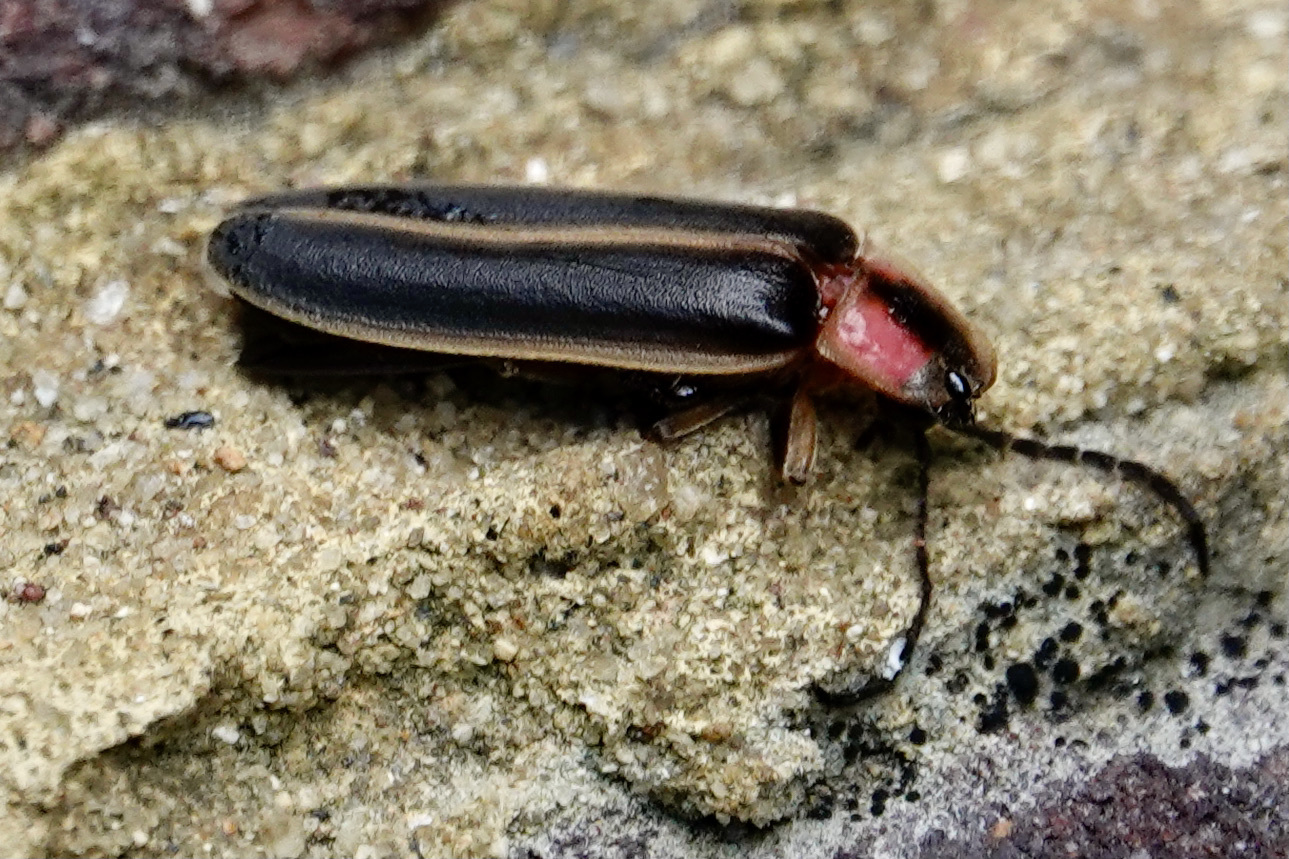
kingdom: Animalia
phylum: Arthropoda
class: Insecta
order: Coleoptera
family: Lampyridae
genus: Photinus
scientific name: Photinus pyralis
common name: Big dipper firefly
